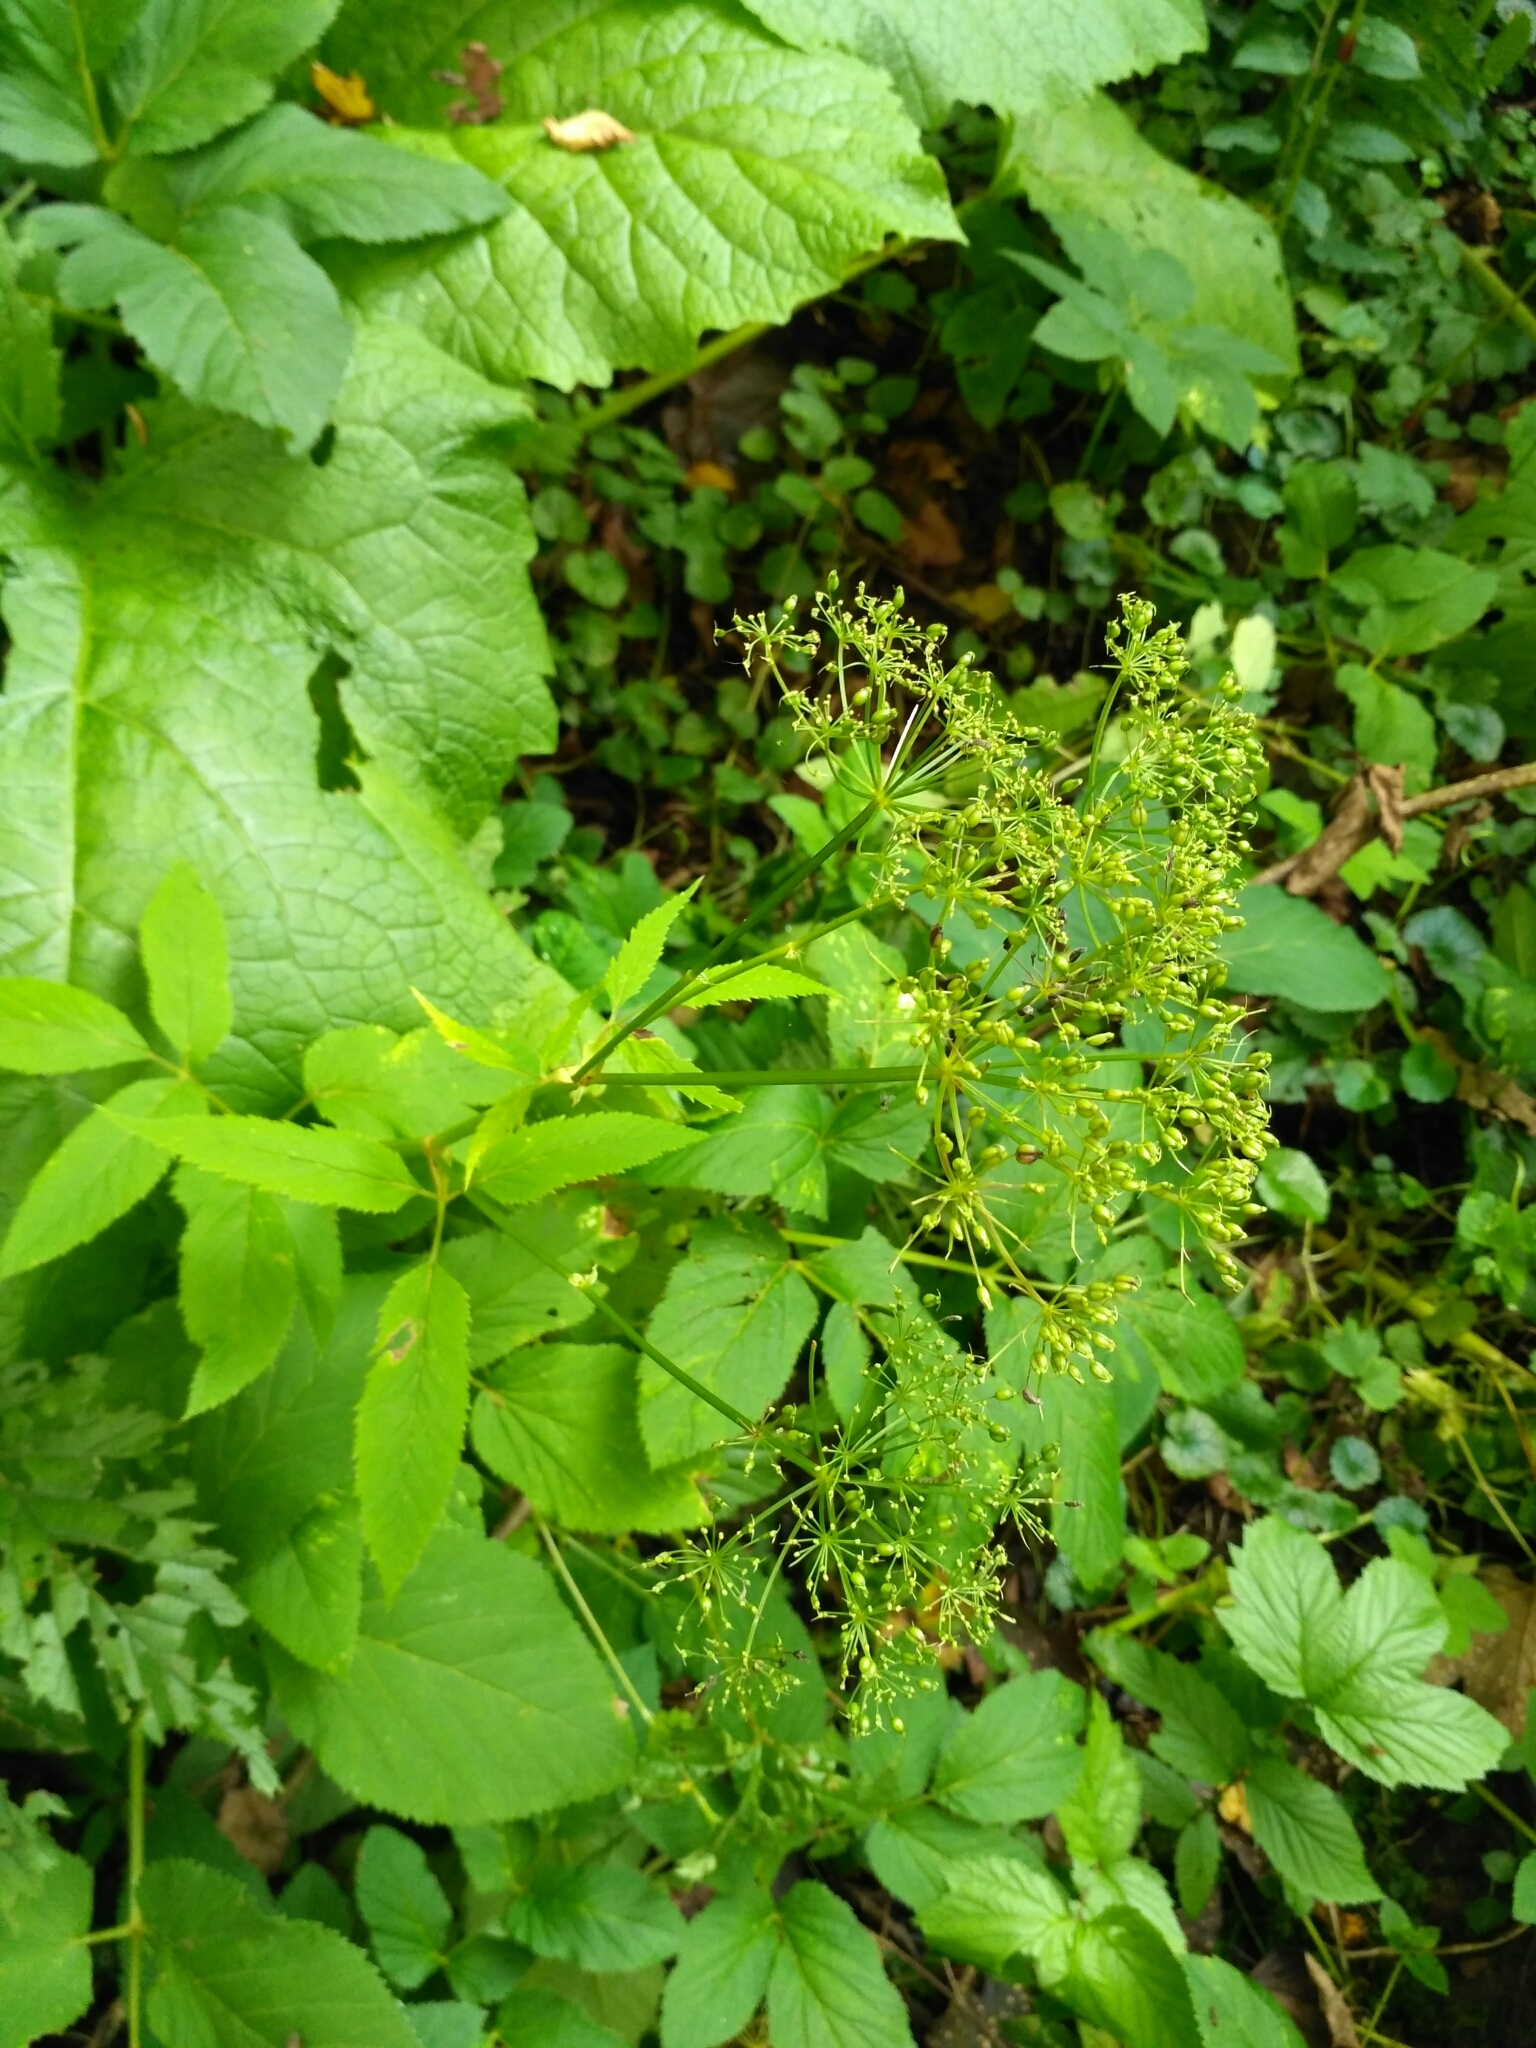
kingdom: Plantae
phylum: Tracheophyta
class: Magnoliopsida
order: Apiales
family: Apiaceae
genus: Aegopodium
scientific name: Aegopodium podagraria
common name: Ground-elder
